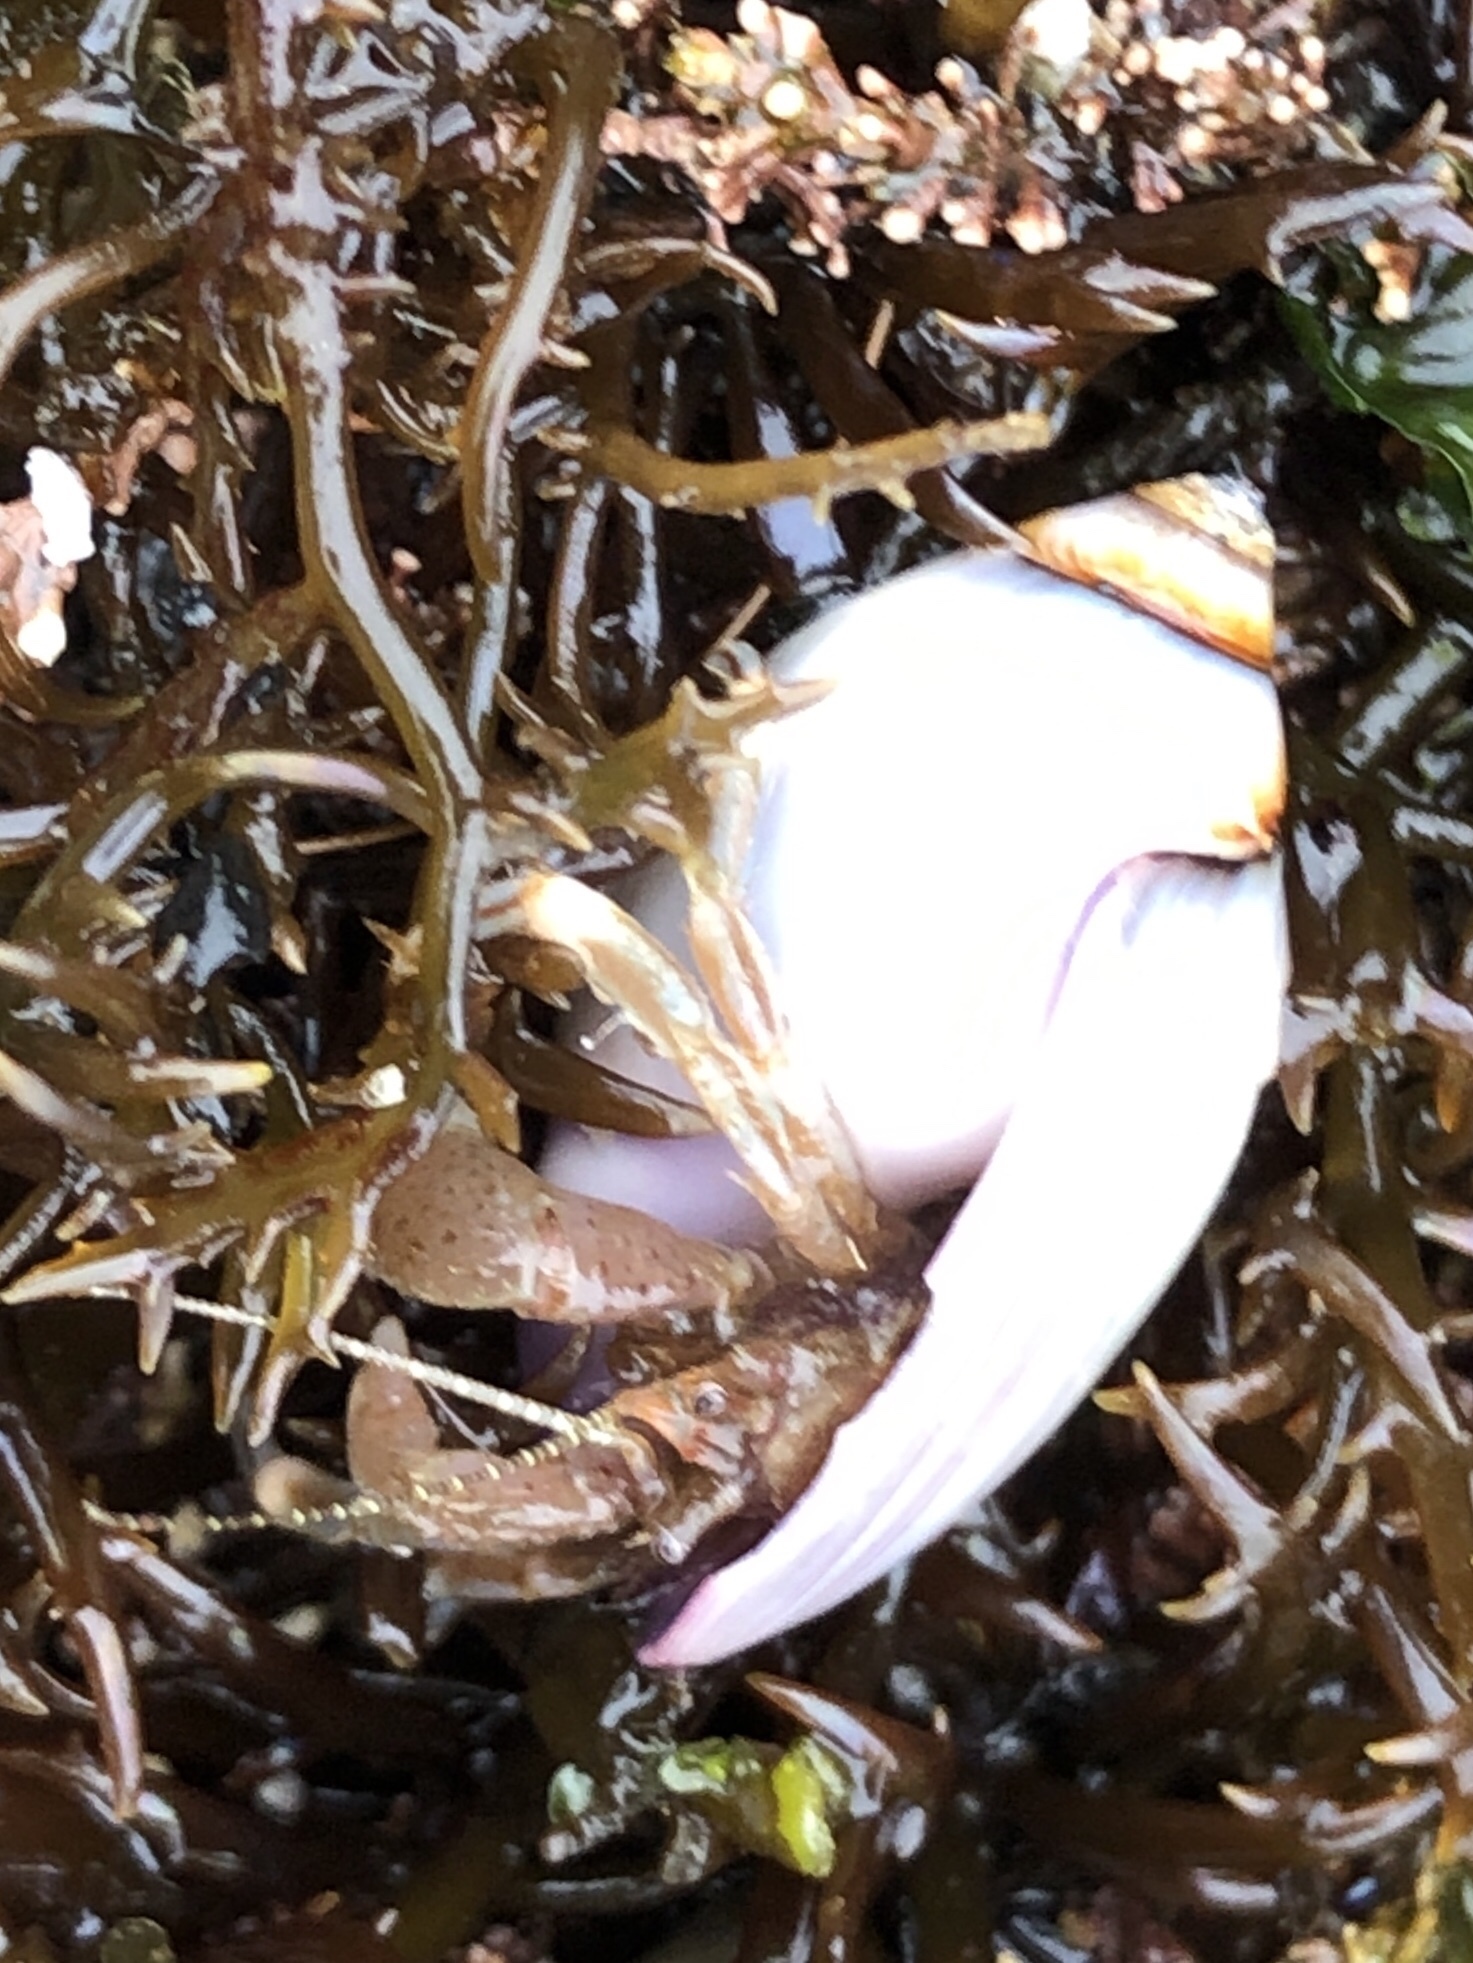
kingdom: Animalia
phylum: Arthropoda
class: Malacostraca
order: Decapoda
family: Paguridae
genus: Pagurus
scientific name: Pagurus venturensis
